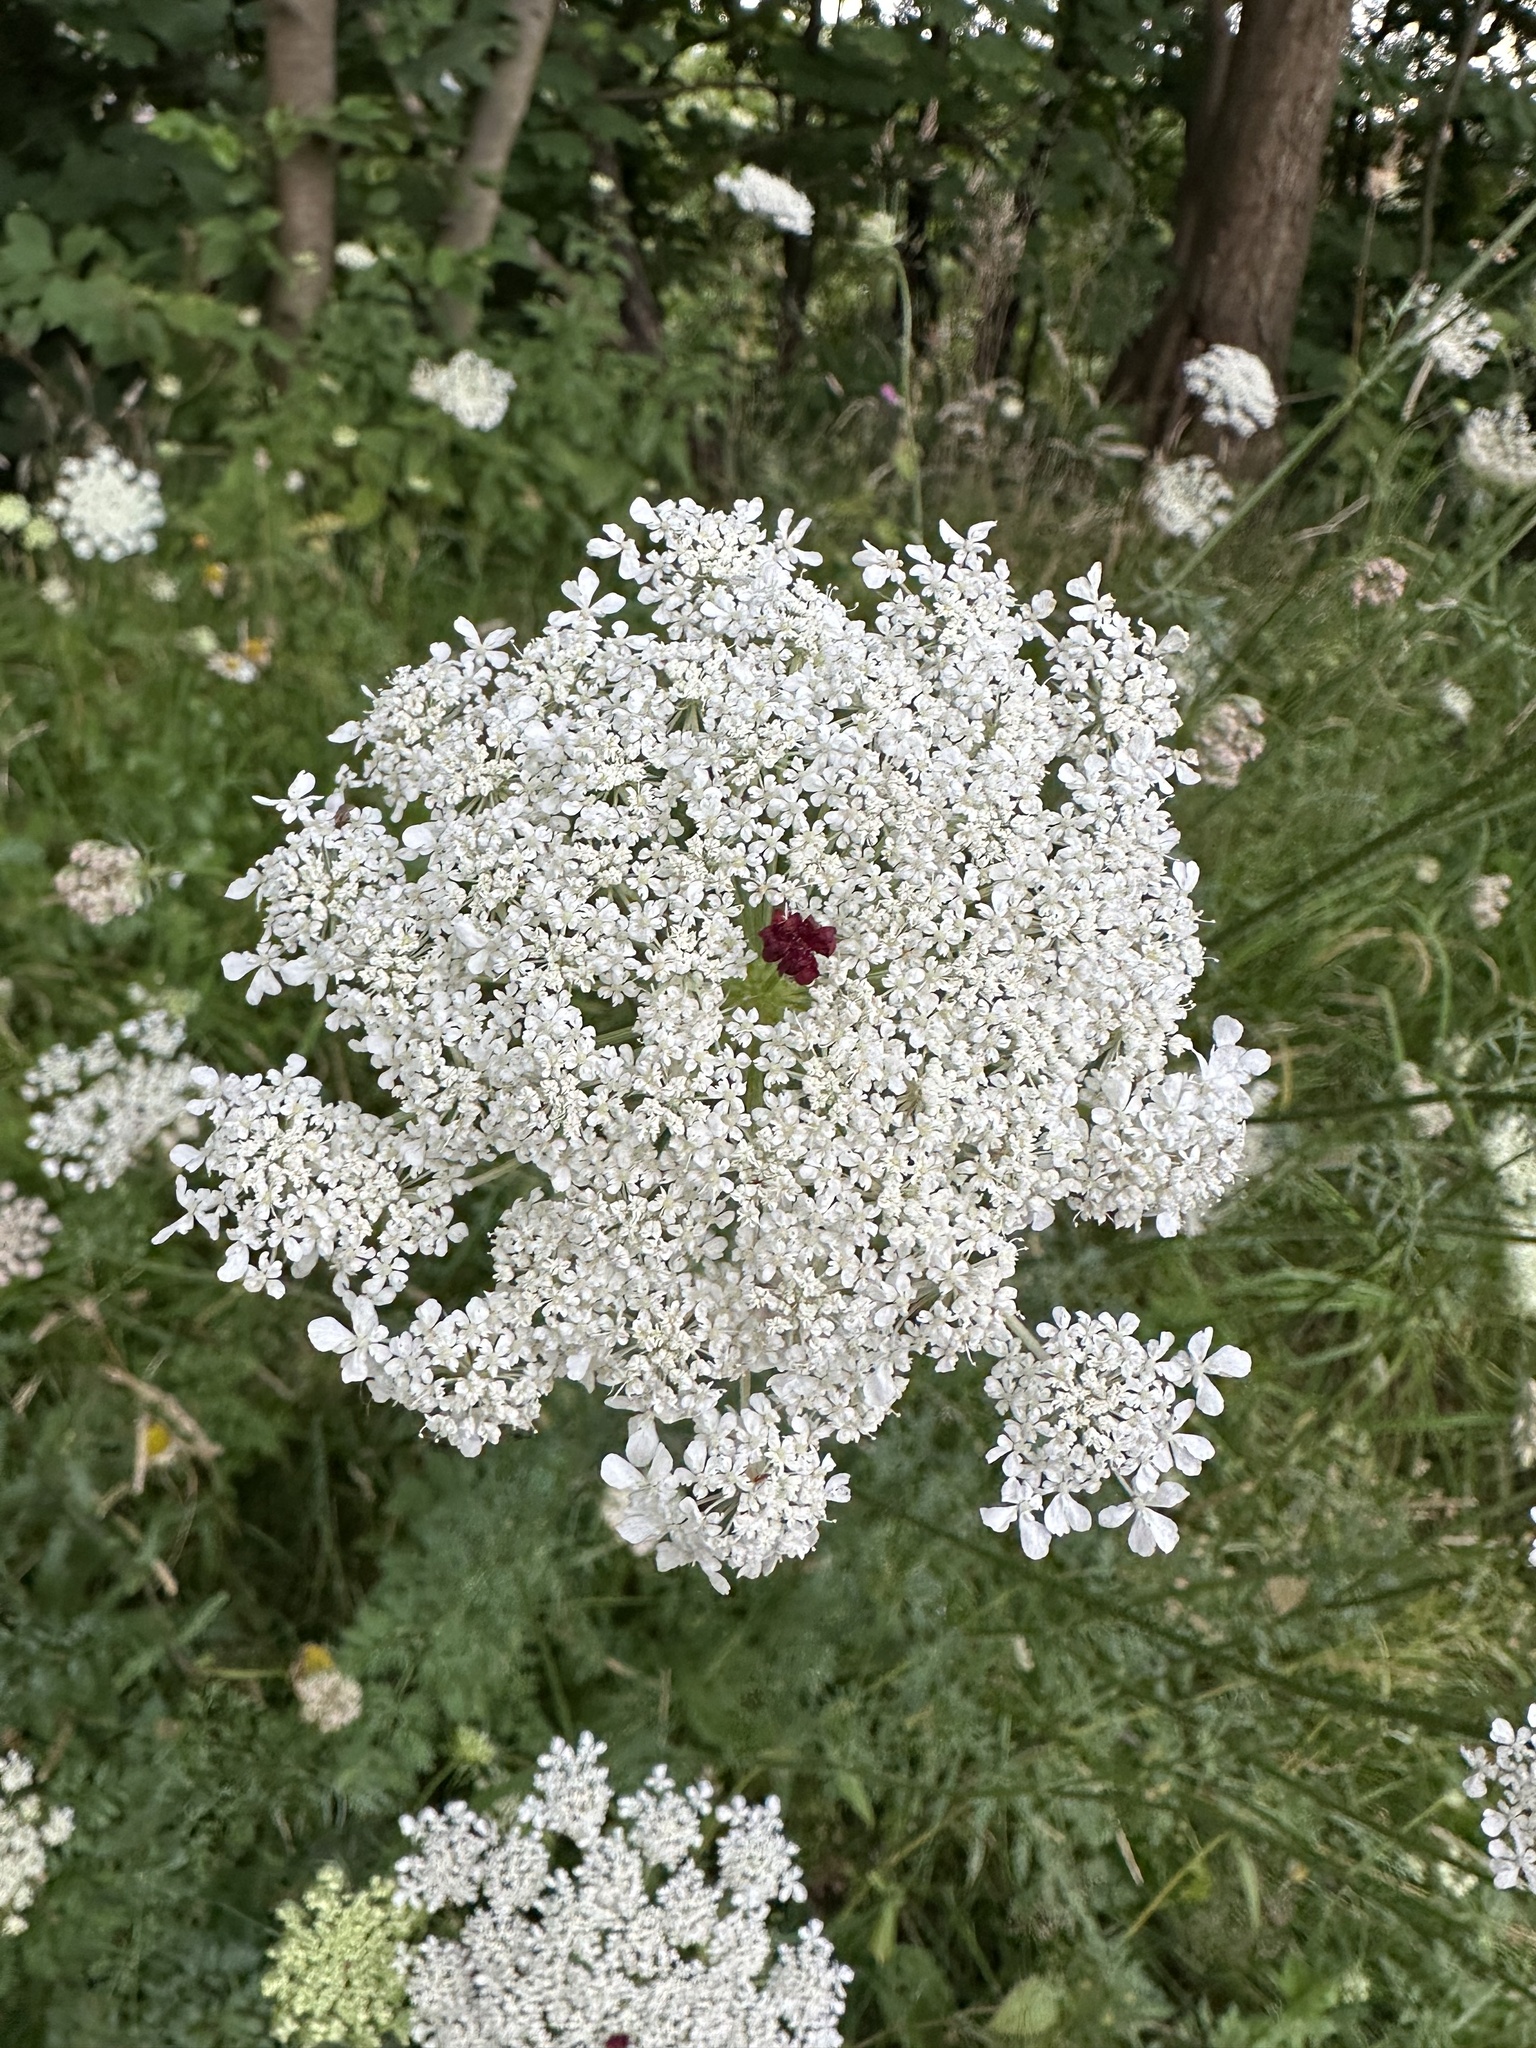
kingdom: Plantae
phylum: Tracheophyta
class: Magnoliopsida
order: Apiales
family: Apiaceae
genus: Daucus
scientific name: Daucus carota
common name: Wild carrot
